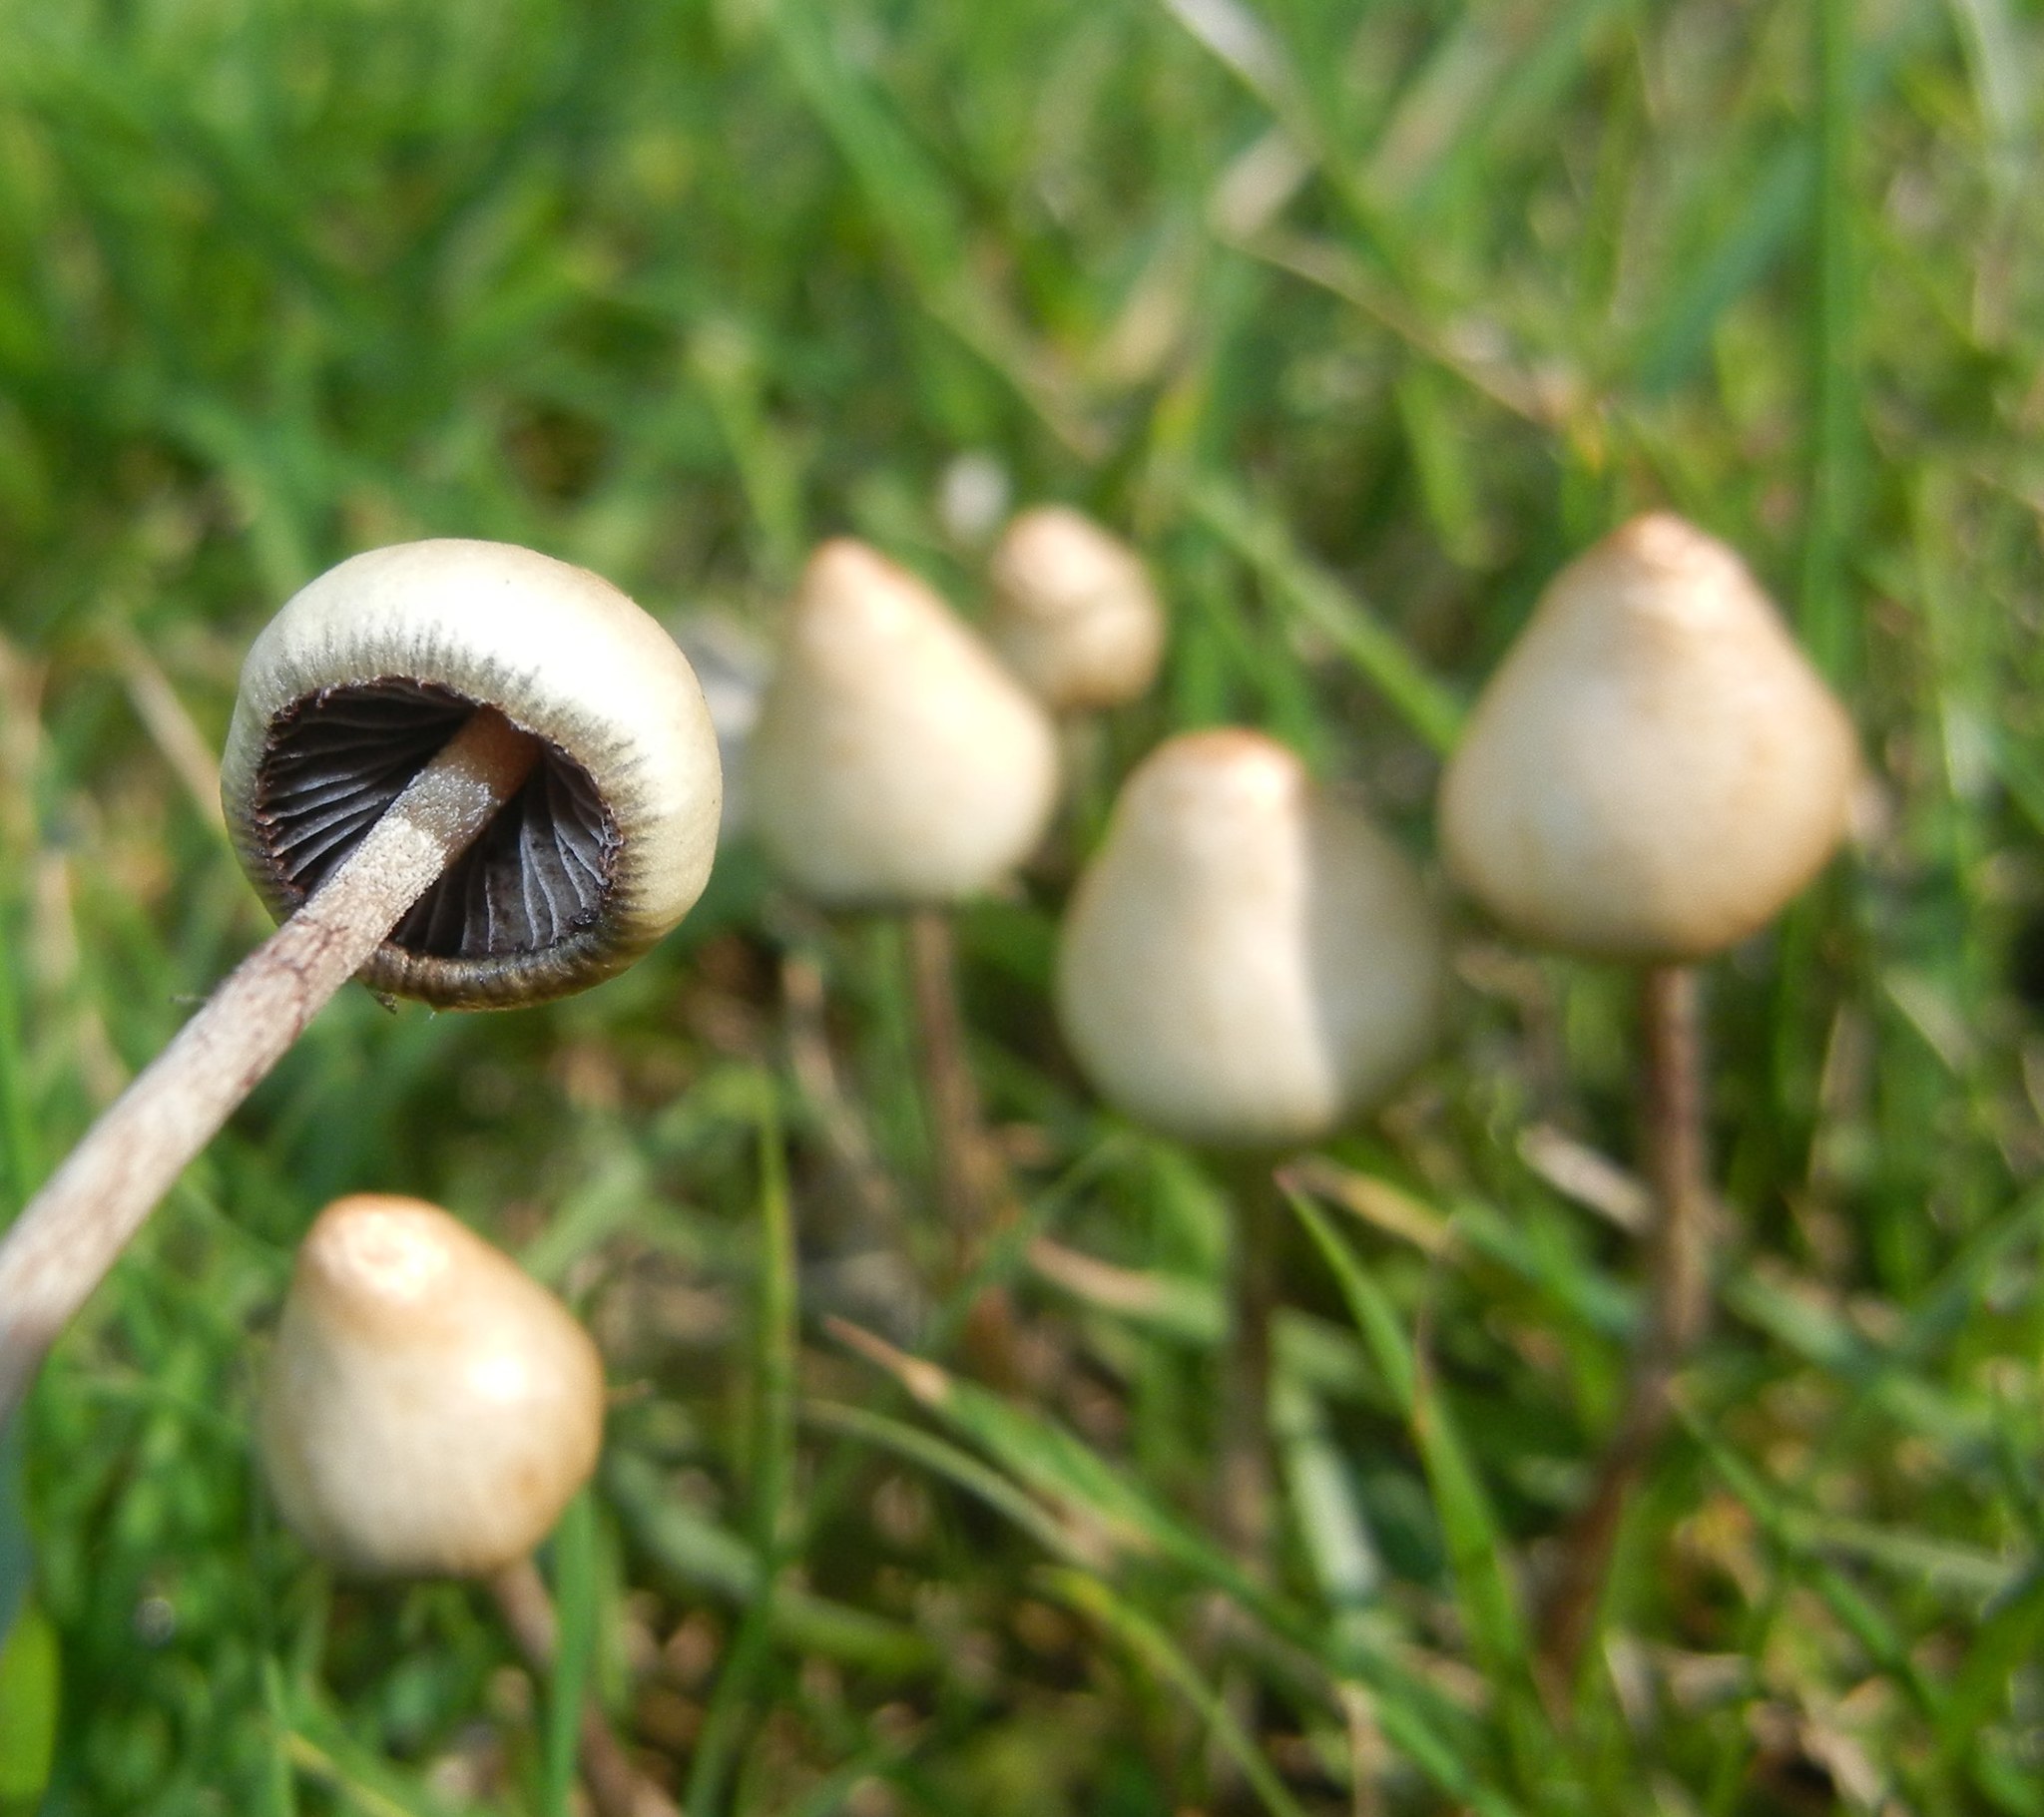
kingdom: Fungi
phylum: Basidiomycota
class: Agaricomycetes
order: Agaricales
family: Hymenogastraceae
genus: Psilocybe
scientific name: Psilocybe semilanceata
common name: Liberty cap
